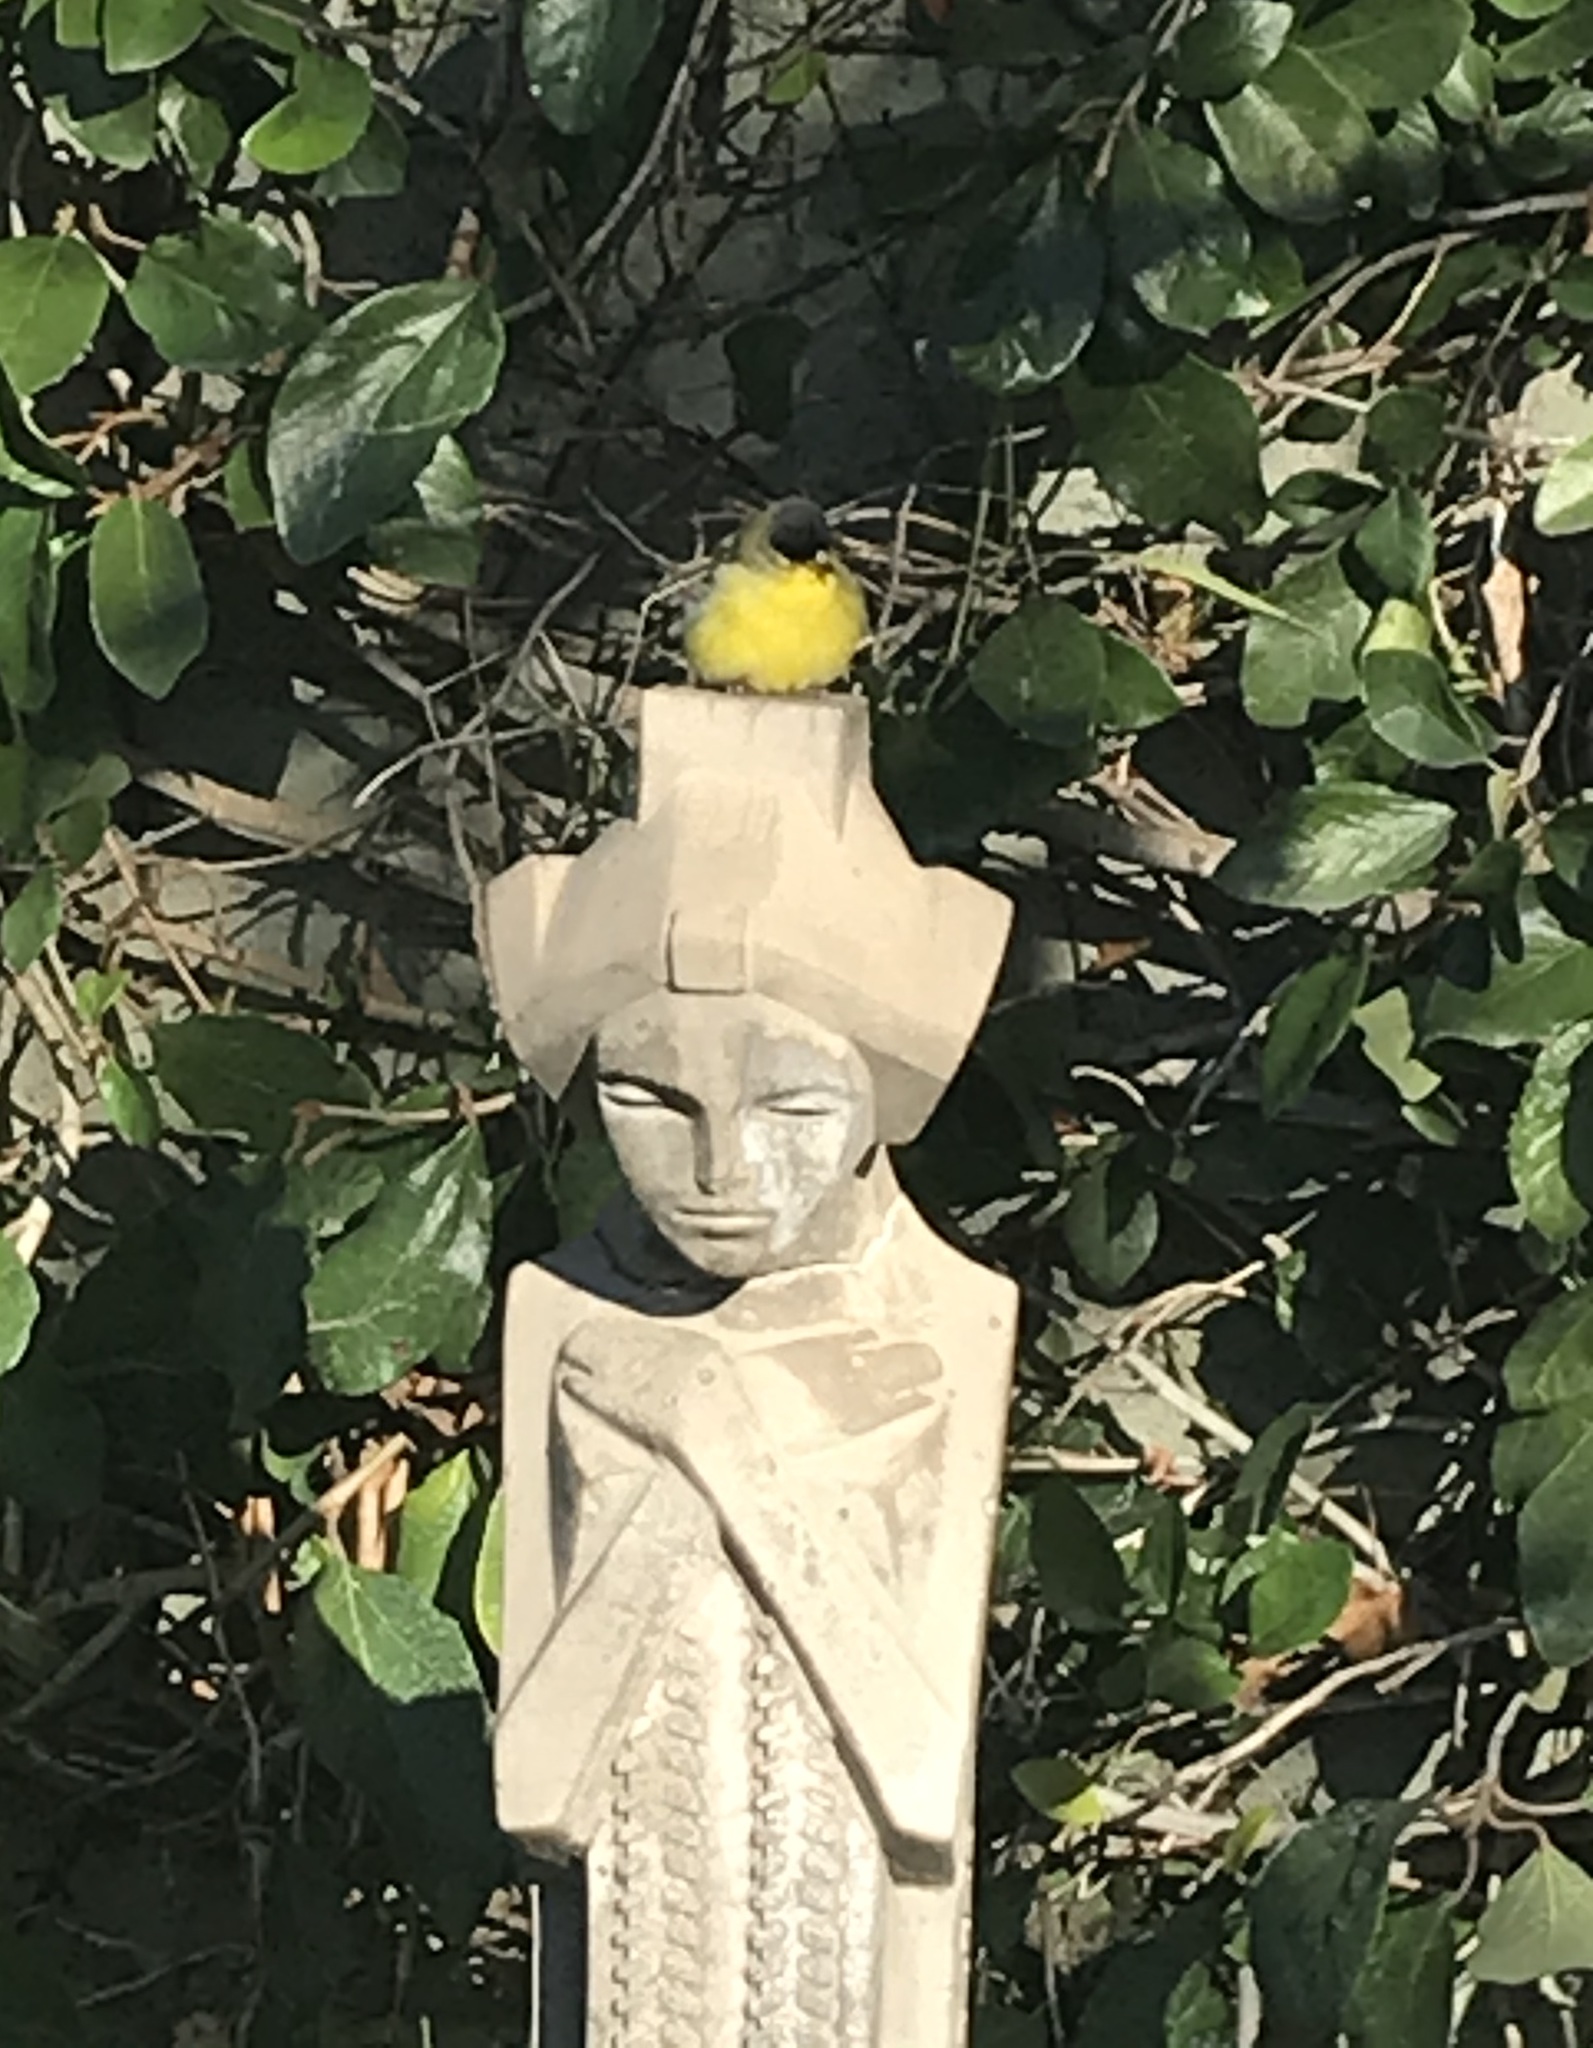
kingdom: Animalia
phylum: Chordata
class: Aves
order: Passeriformes
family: Fringillidae
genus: Spinus
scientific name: Spinus psaltria
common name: Lesser goldfinch
